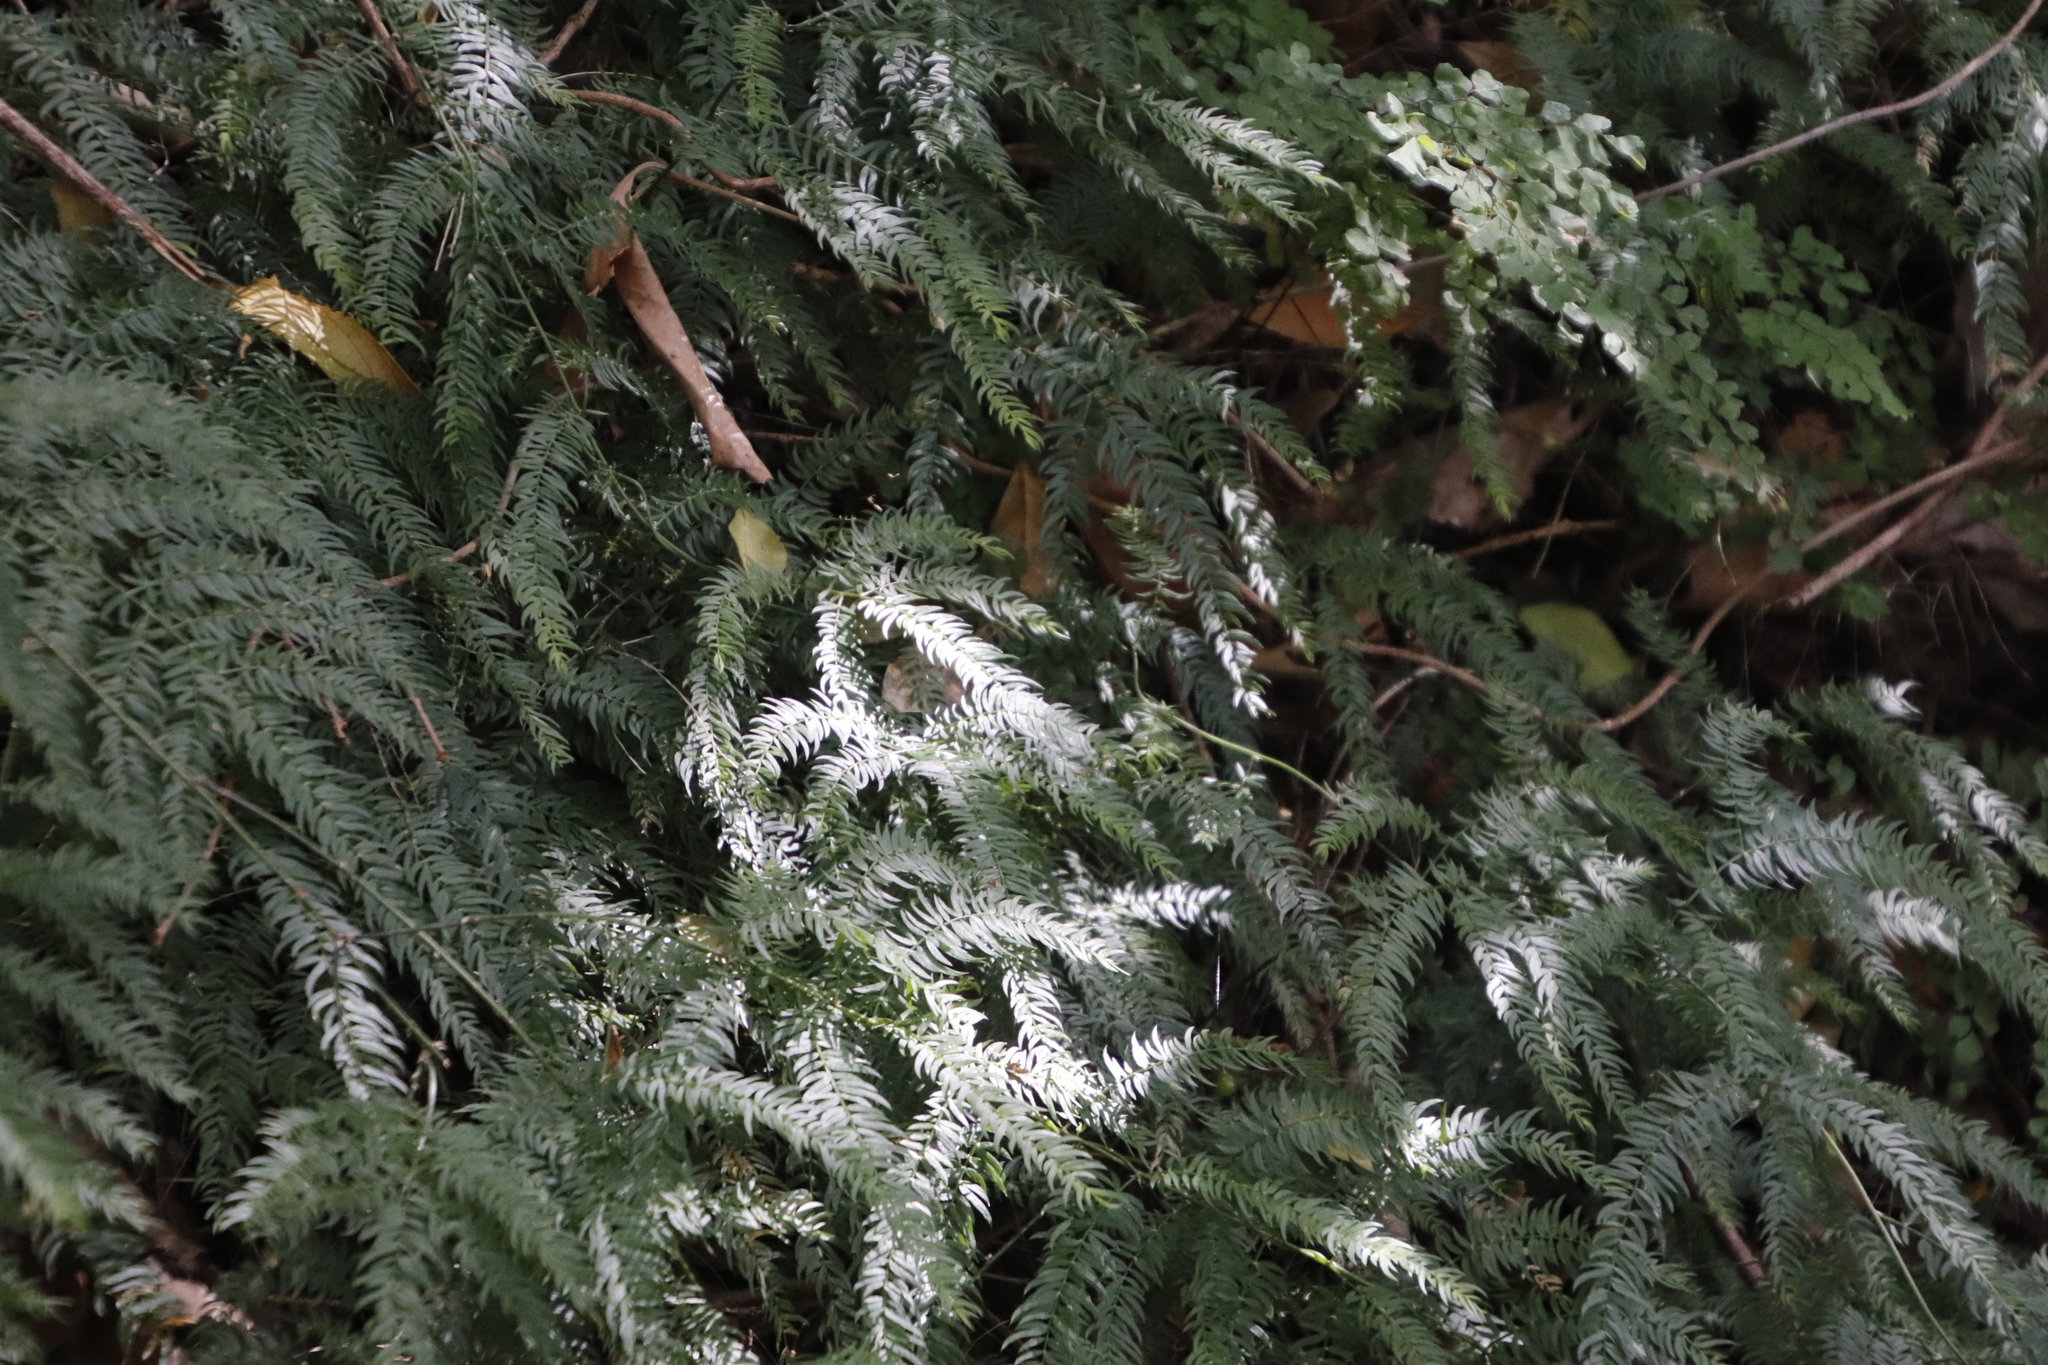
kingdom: Plantae
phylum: Tracheophyta
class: Liliopsida
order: Asparagales
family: Asparagaceae
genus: Asparagus
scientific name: Asparagus scandens
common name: Asparagus-fern
